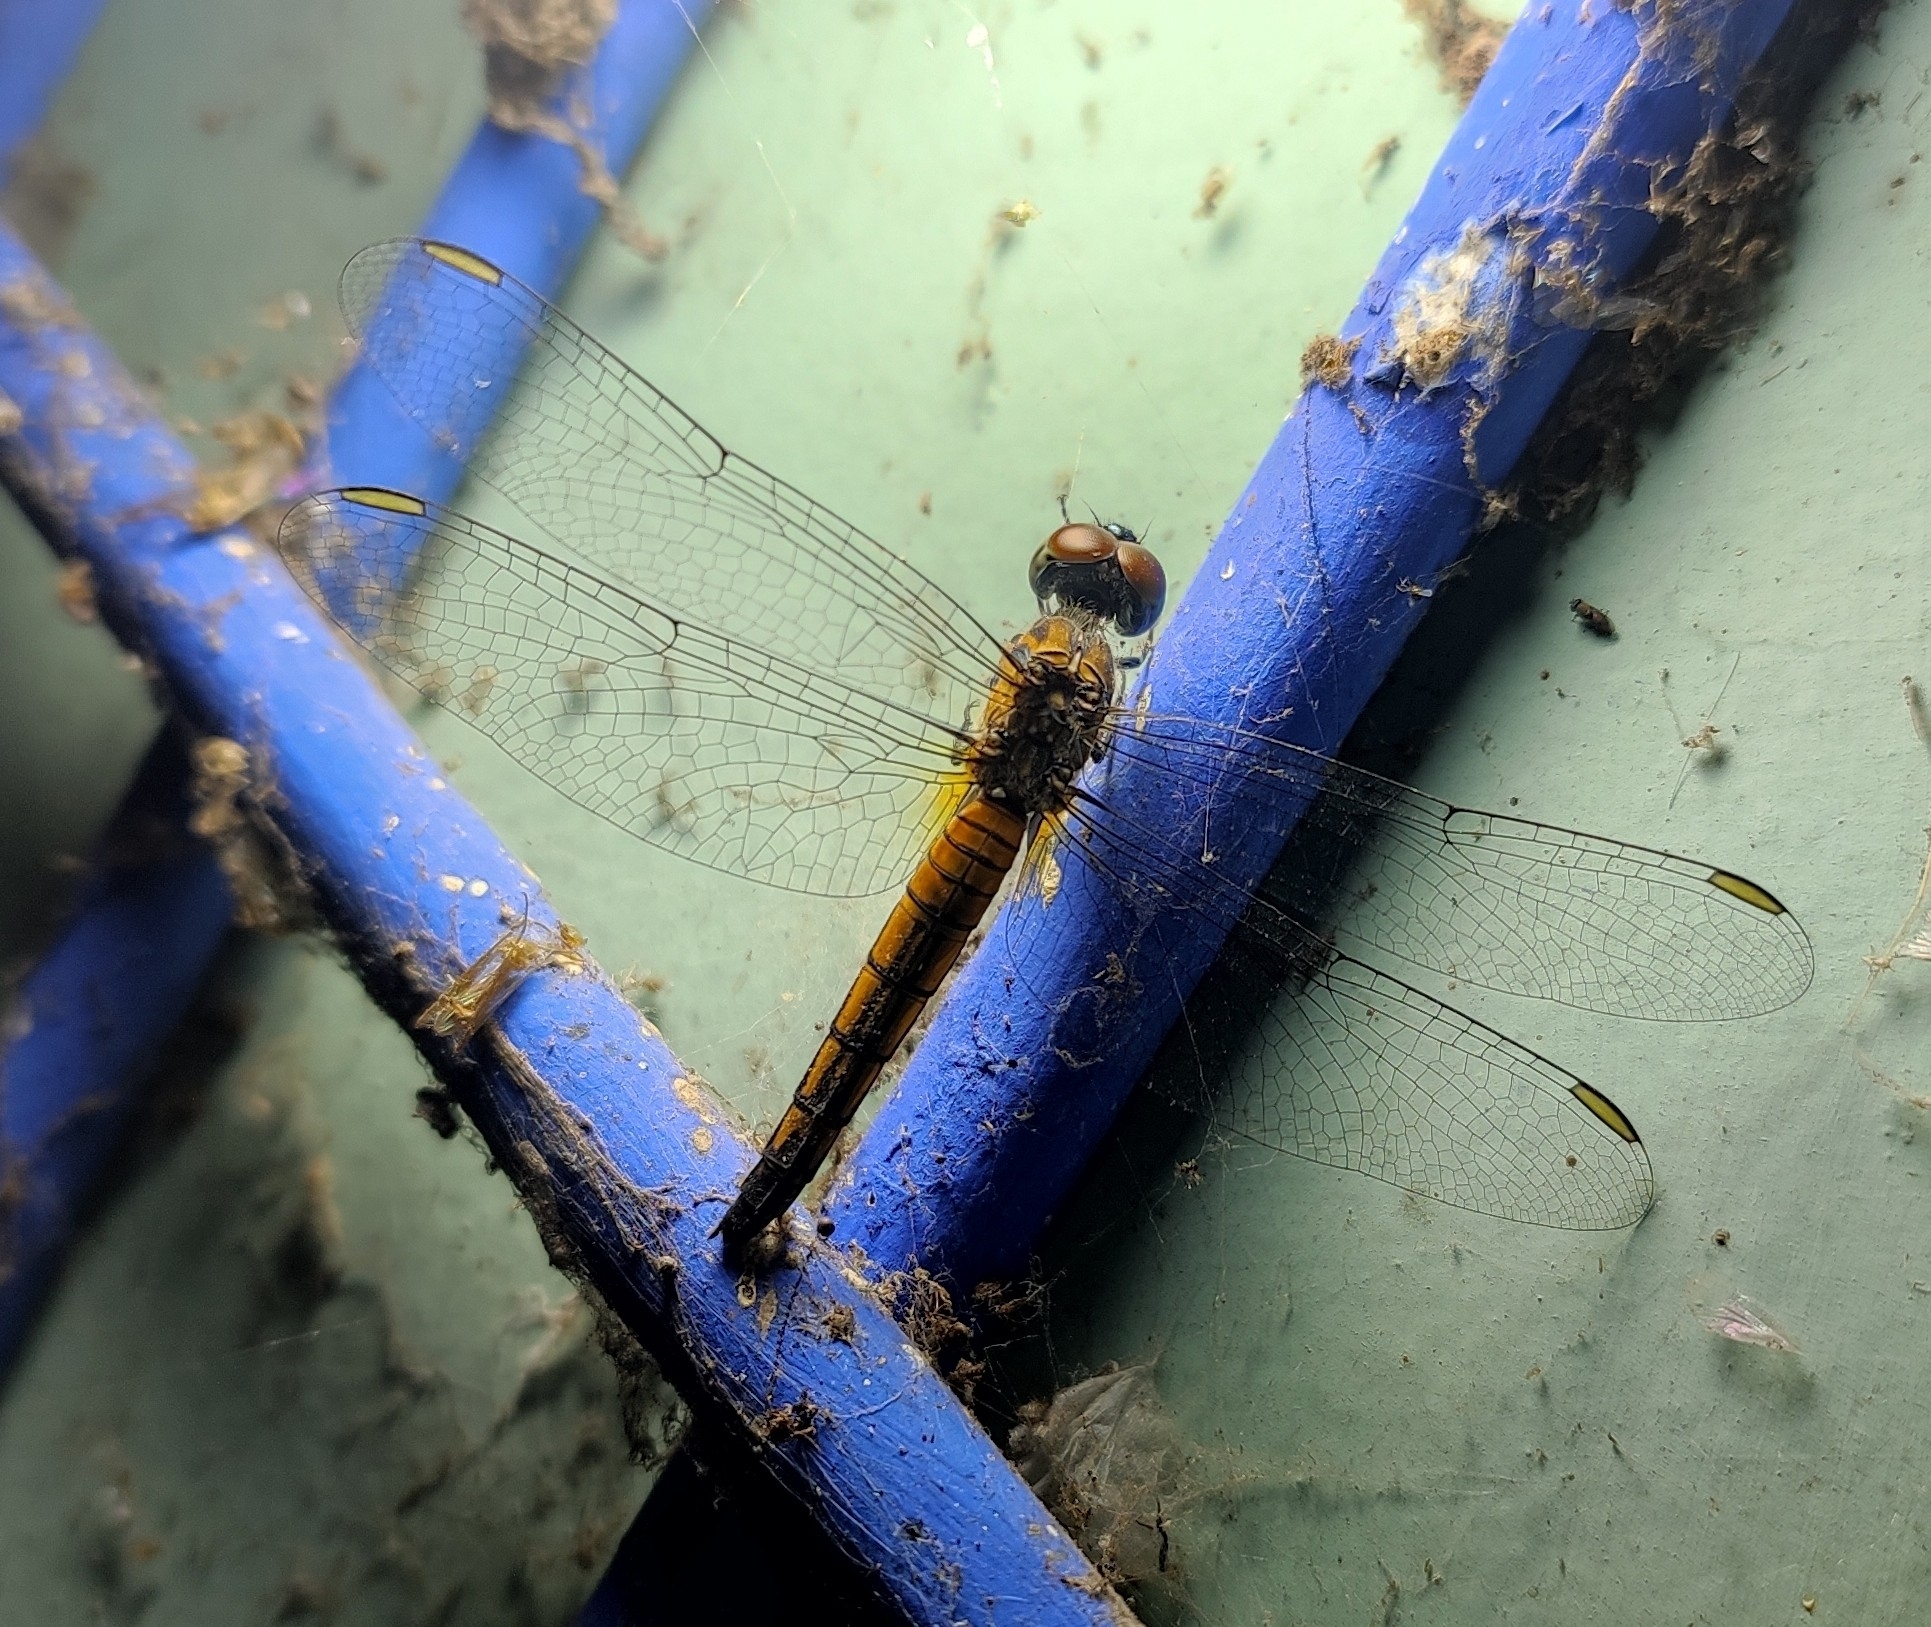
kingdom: Animalia
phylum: Arthropoda
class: Insecta
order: Odonata
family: Libellulidae
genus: Brachydiplax
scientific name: Brachydiplax chalybea
